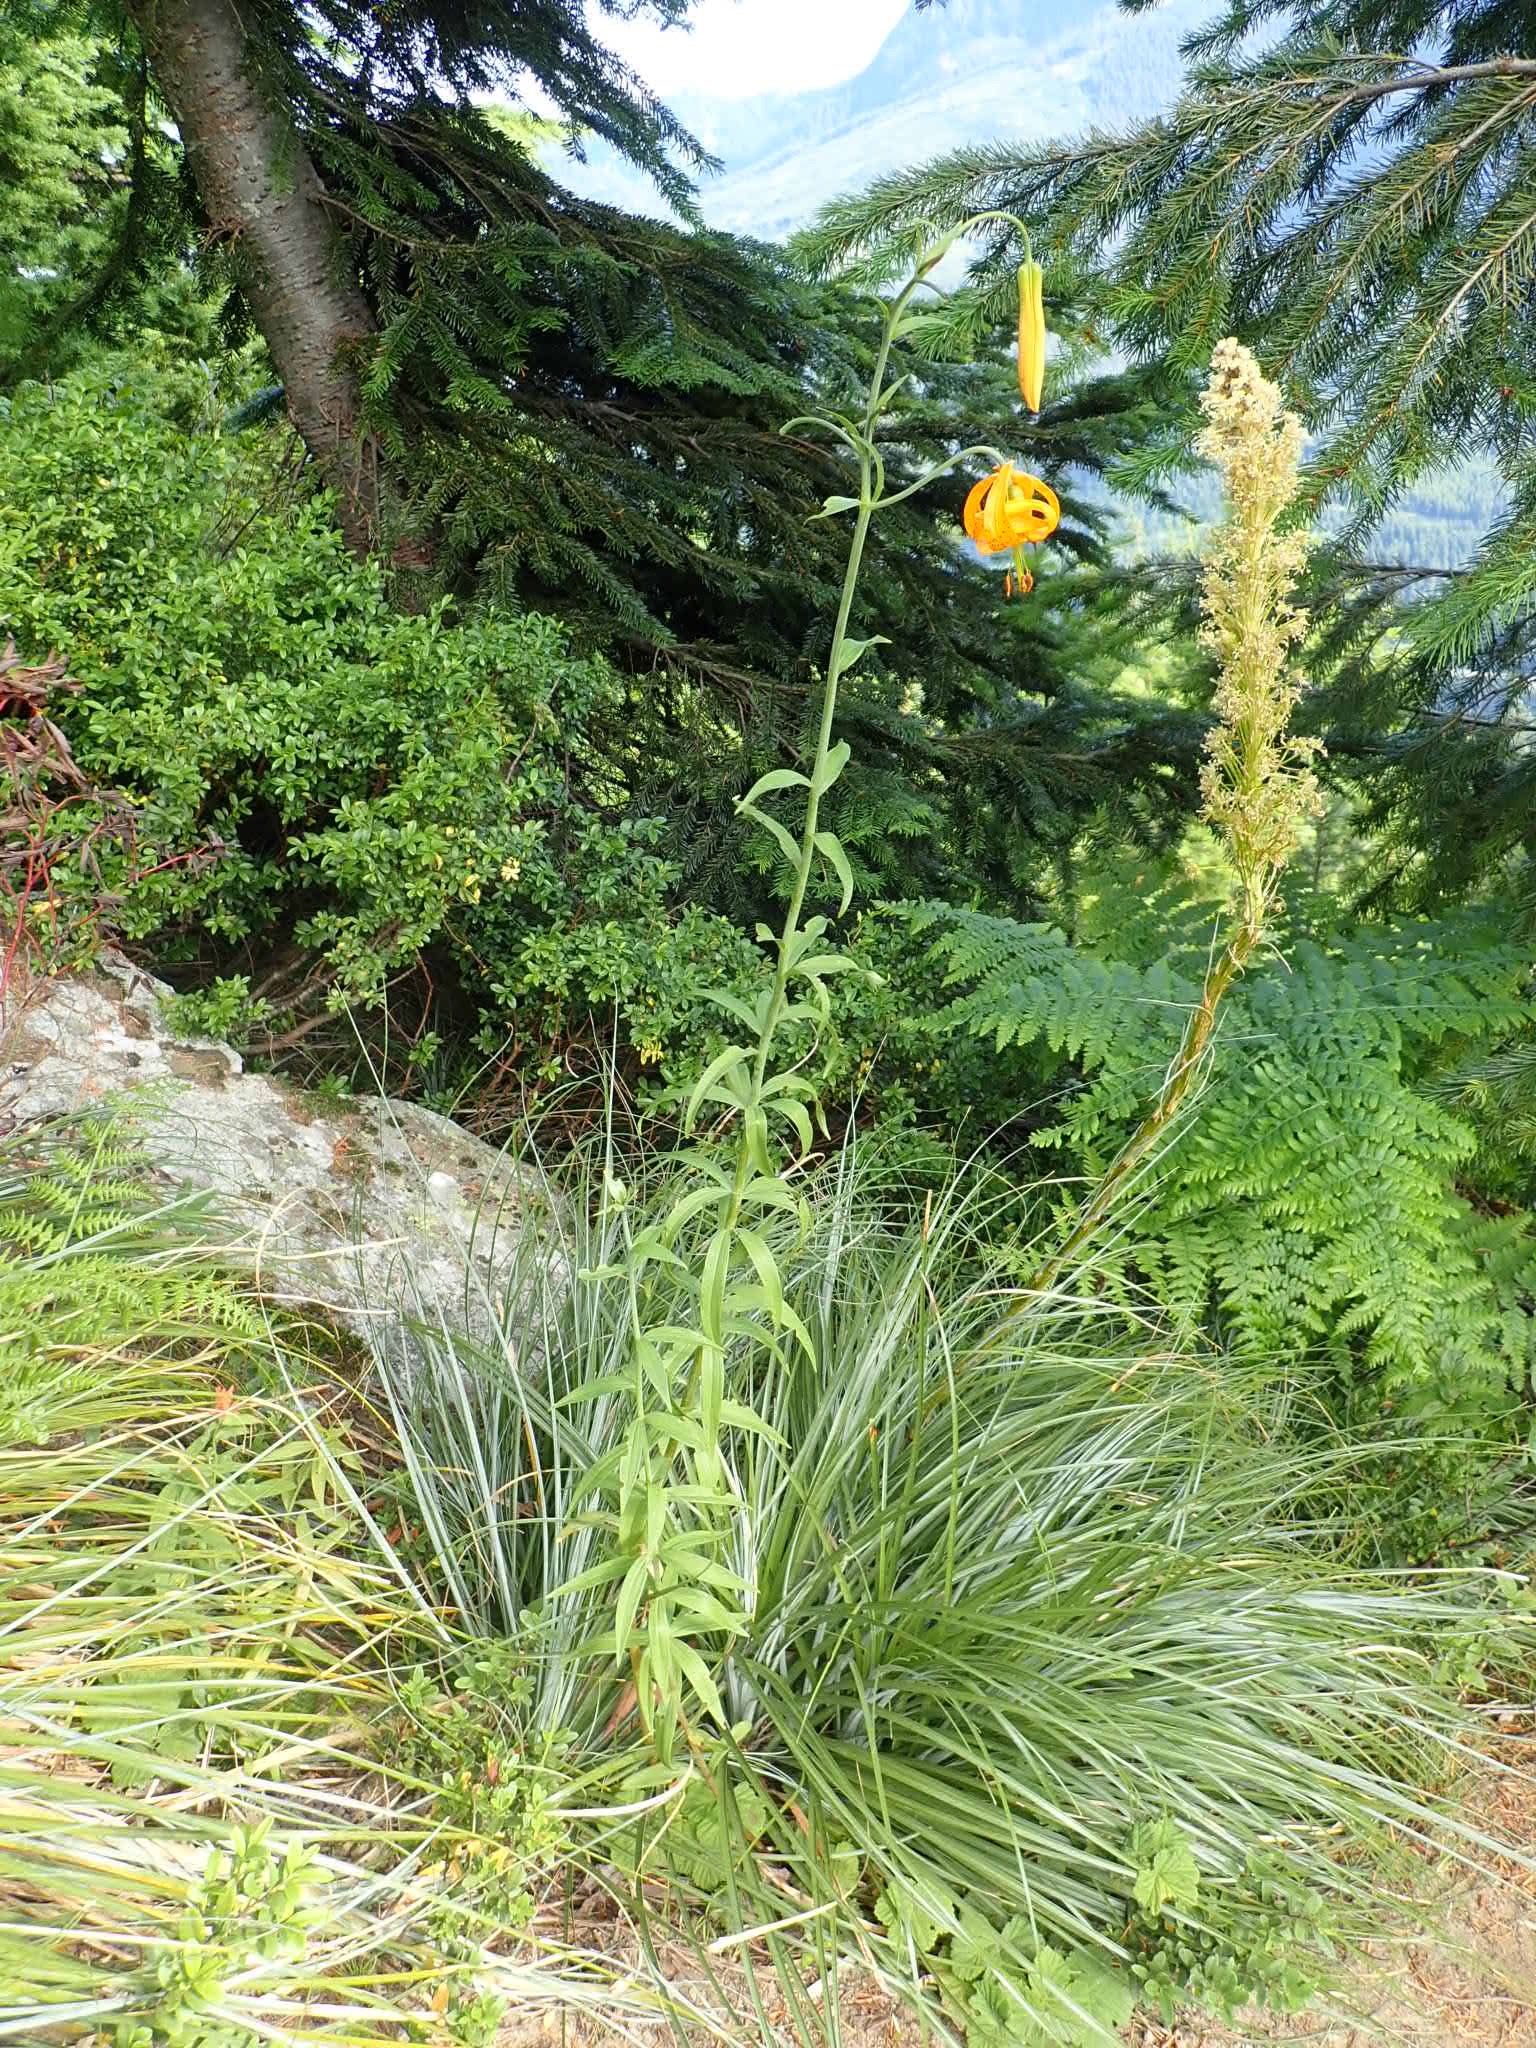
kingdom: Plantae
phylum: Tracheophyta
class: Liliopsida
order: Liliales
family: Liliaceae
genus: Lilium
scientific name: Lilium columbianum
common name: Columbia lily
